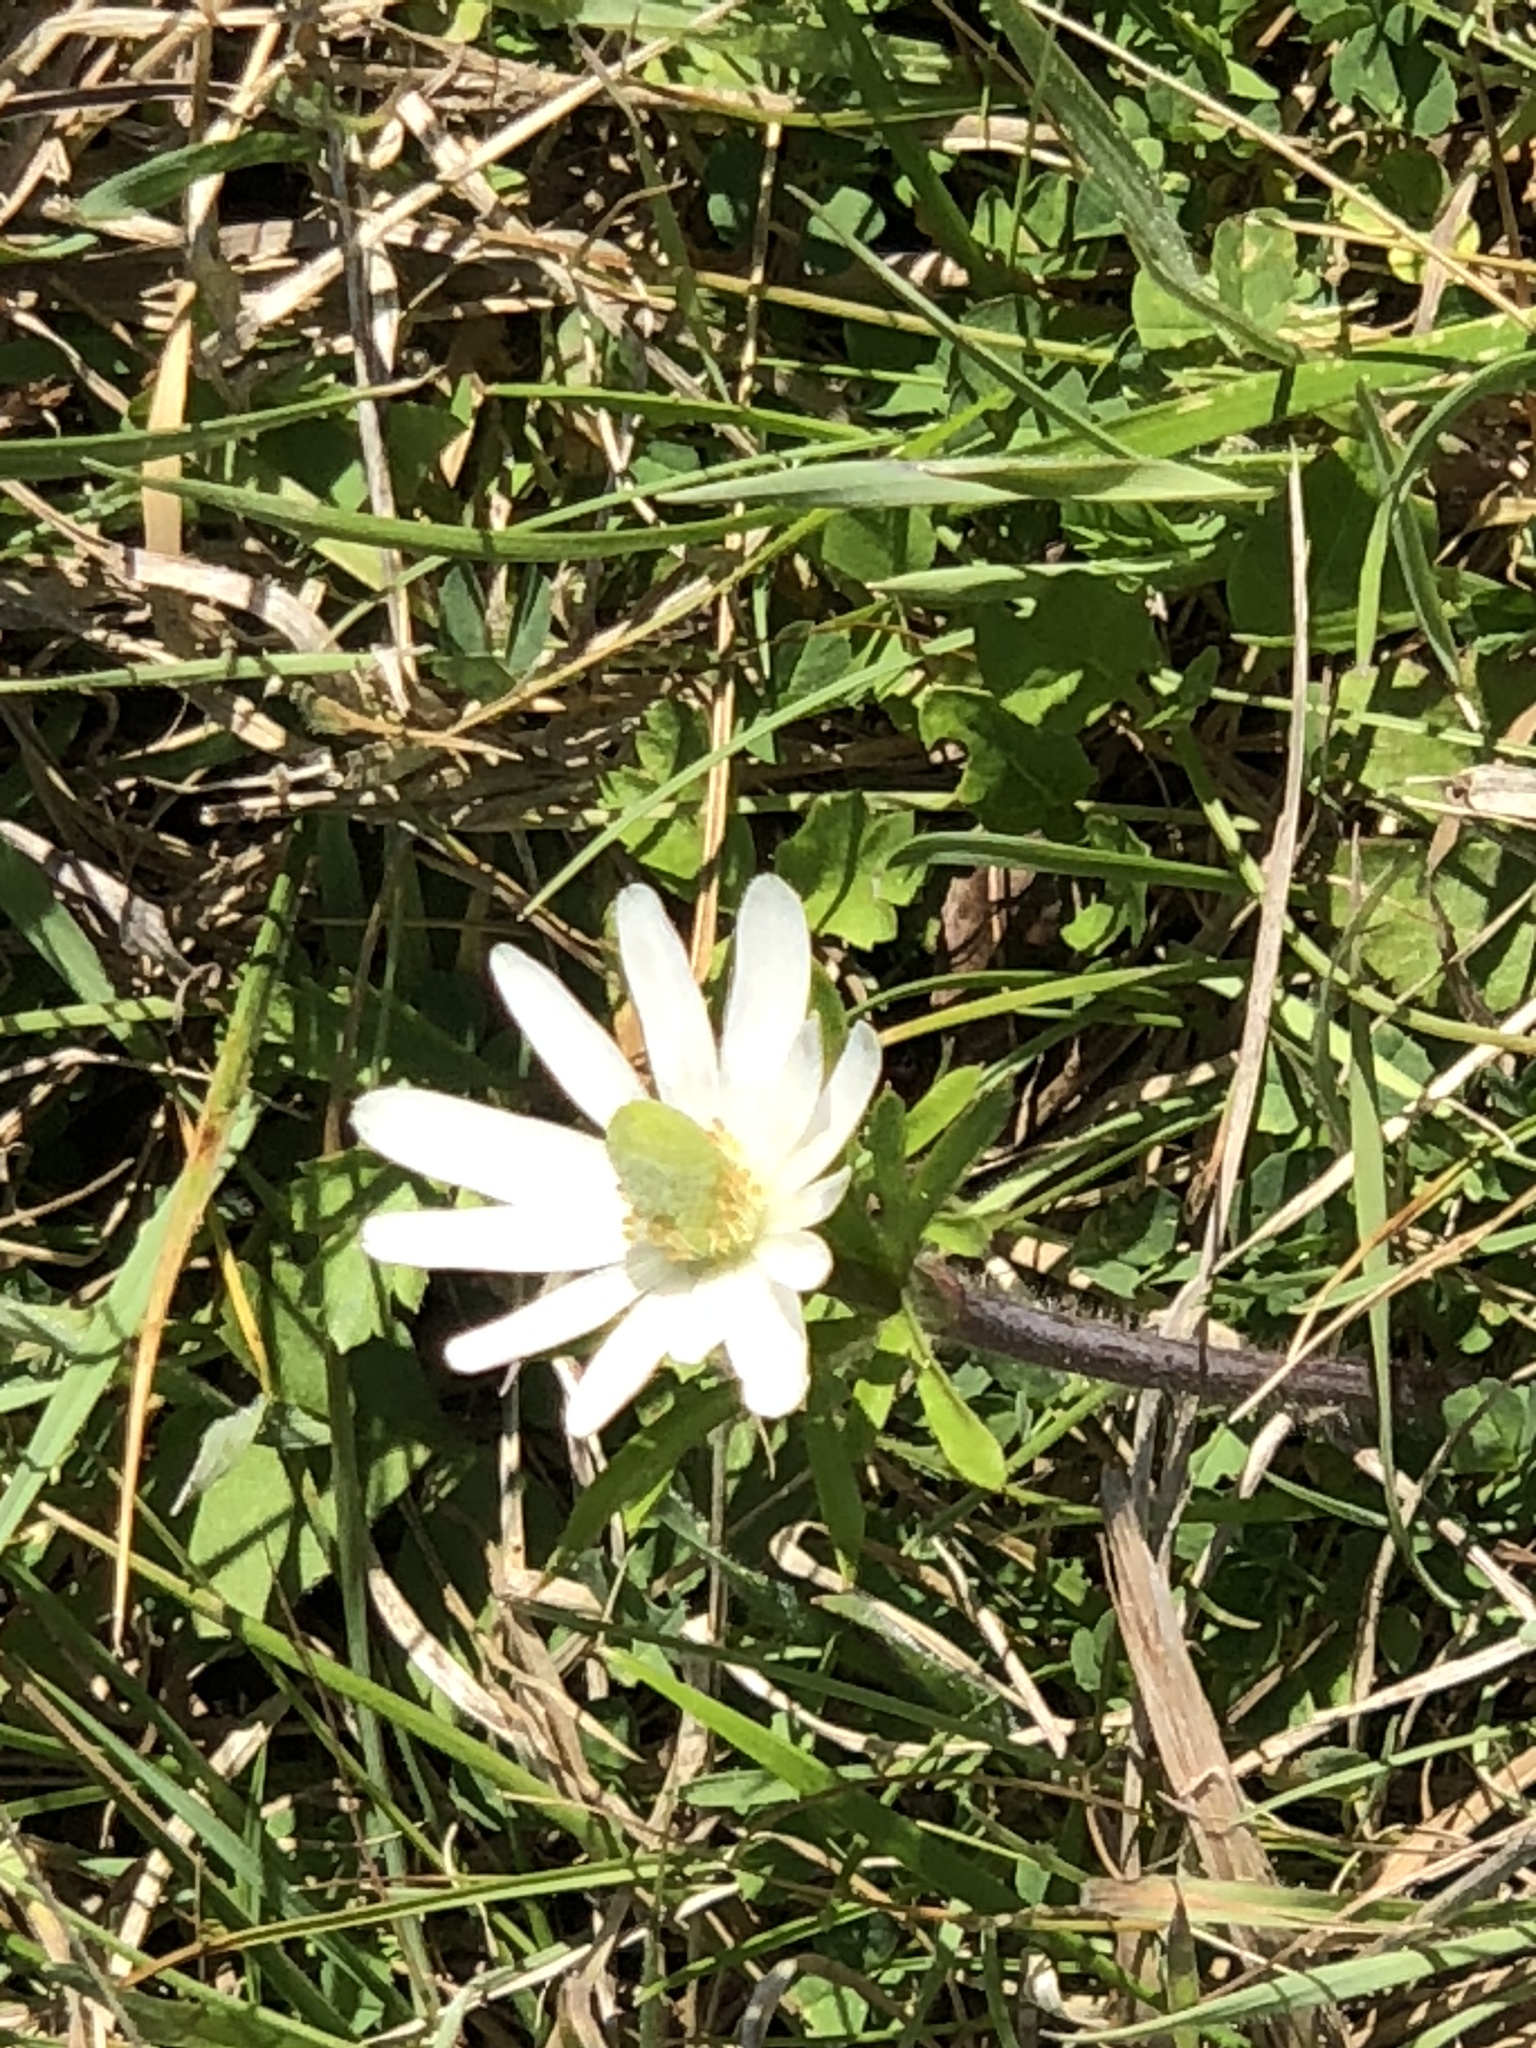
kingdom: Plantae
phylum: Tracheophyta
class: Magnoliopsida
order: Ranunculales
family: Ranunculaceae
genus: Anemone
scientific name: Anemone berlandieri
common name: Ten-petal anemone
